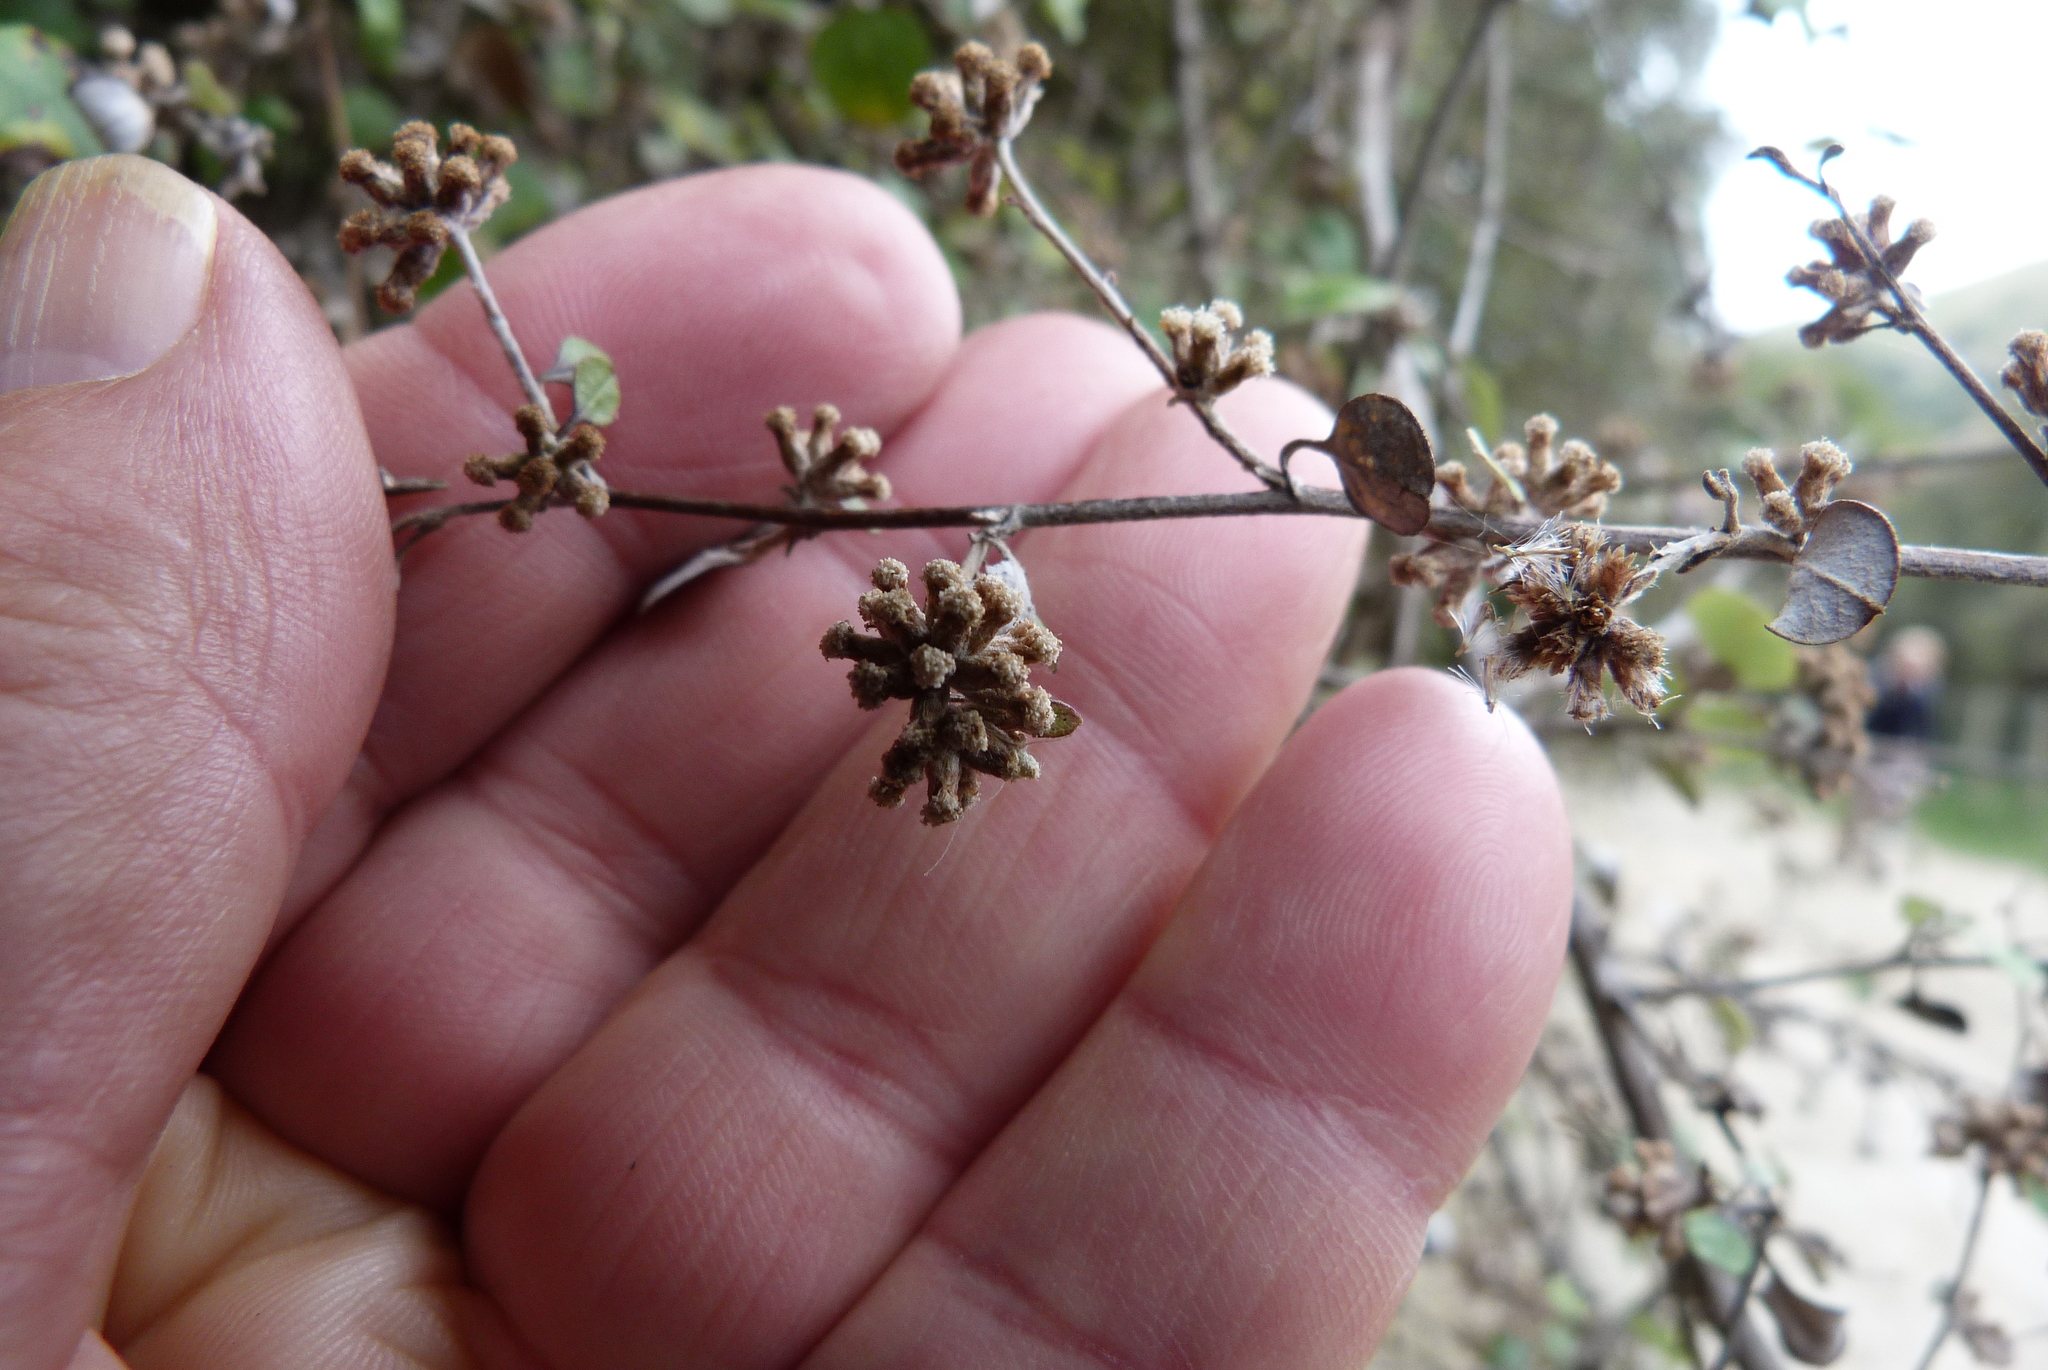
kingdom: Plantae
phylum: Tracheophyta
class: Magnoliopsida
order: Asterales
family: Asteraceae
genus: Ozothamnus
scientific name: Ozothamnus glomeratus
